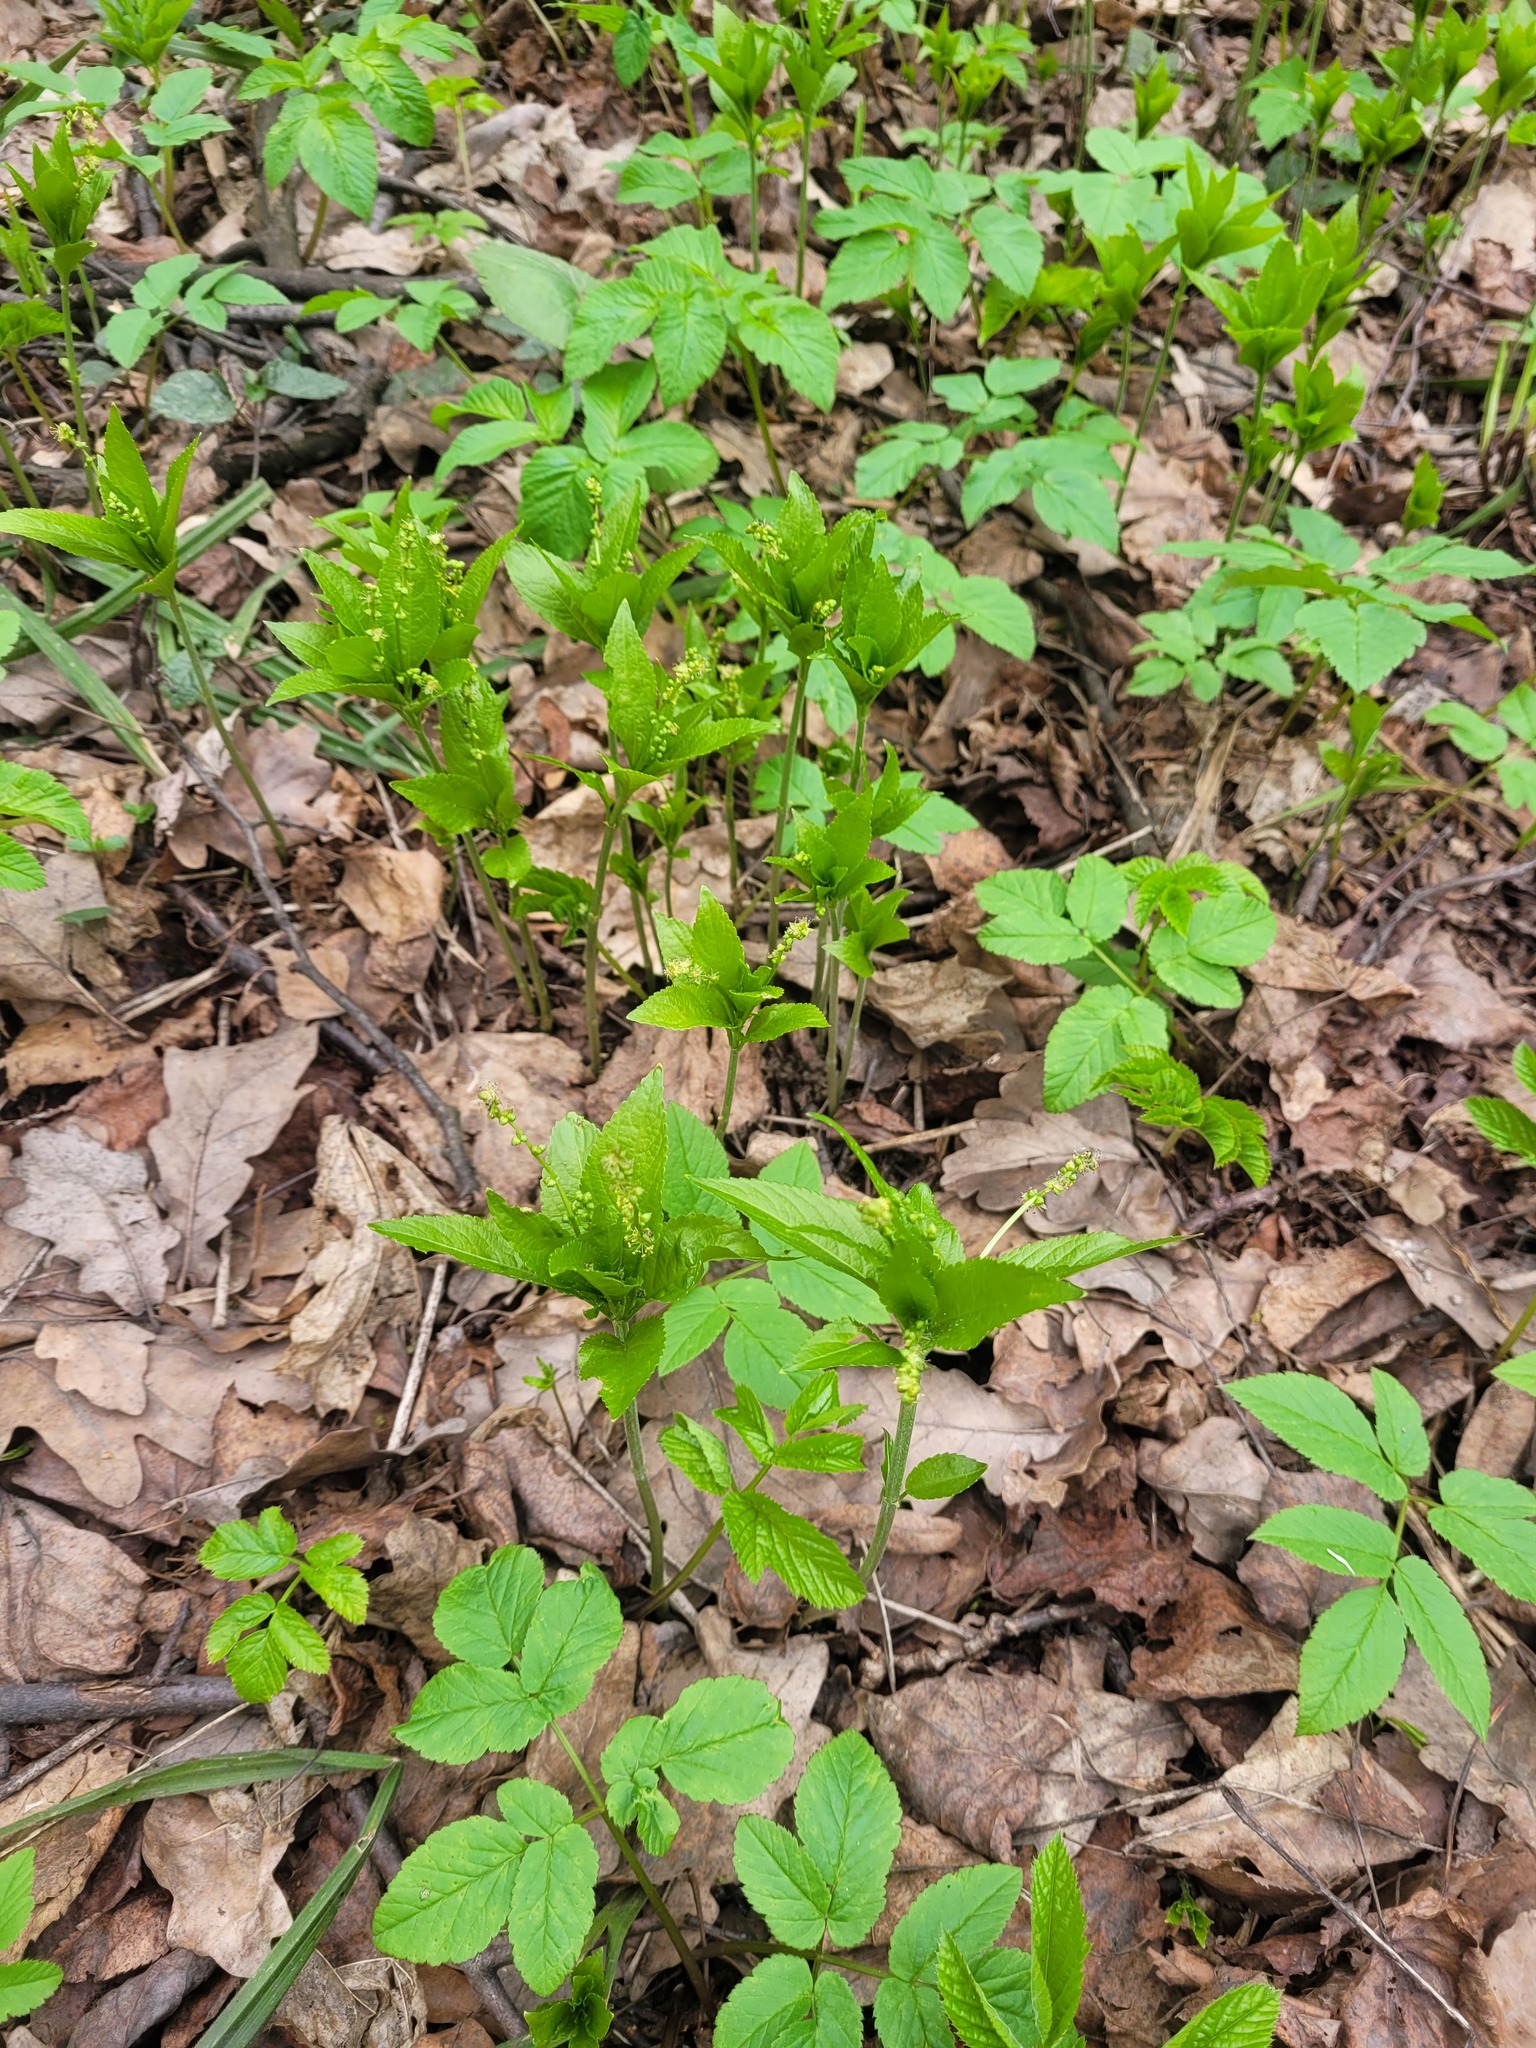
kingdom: Plantae
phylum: Tracheophyta
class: Magnoliopsida
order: Malpighiales
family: Euphorbiaceae
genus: Mercurialis
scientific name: Mercurialis perennis
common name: Dog mercury
